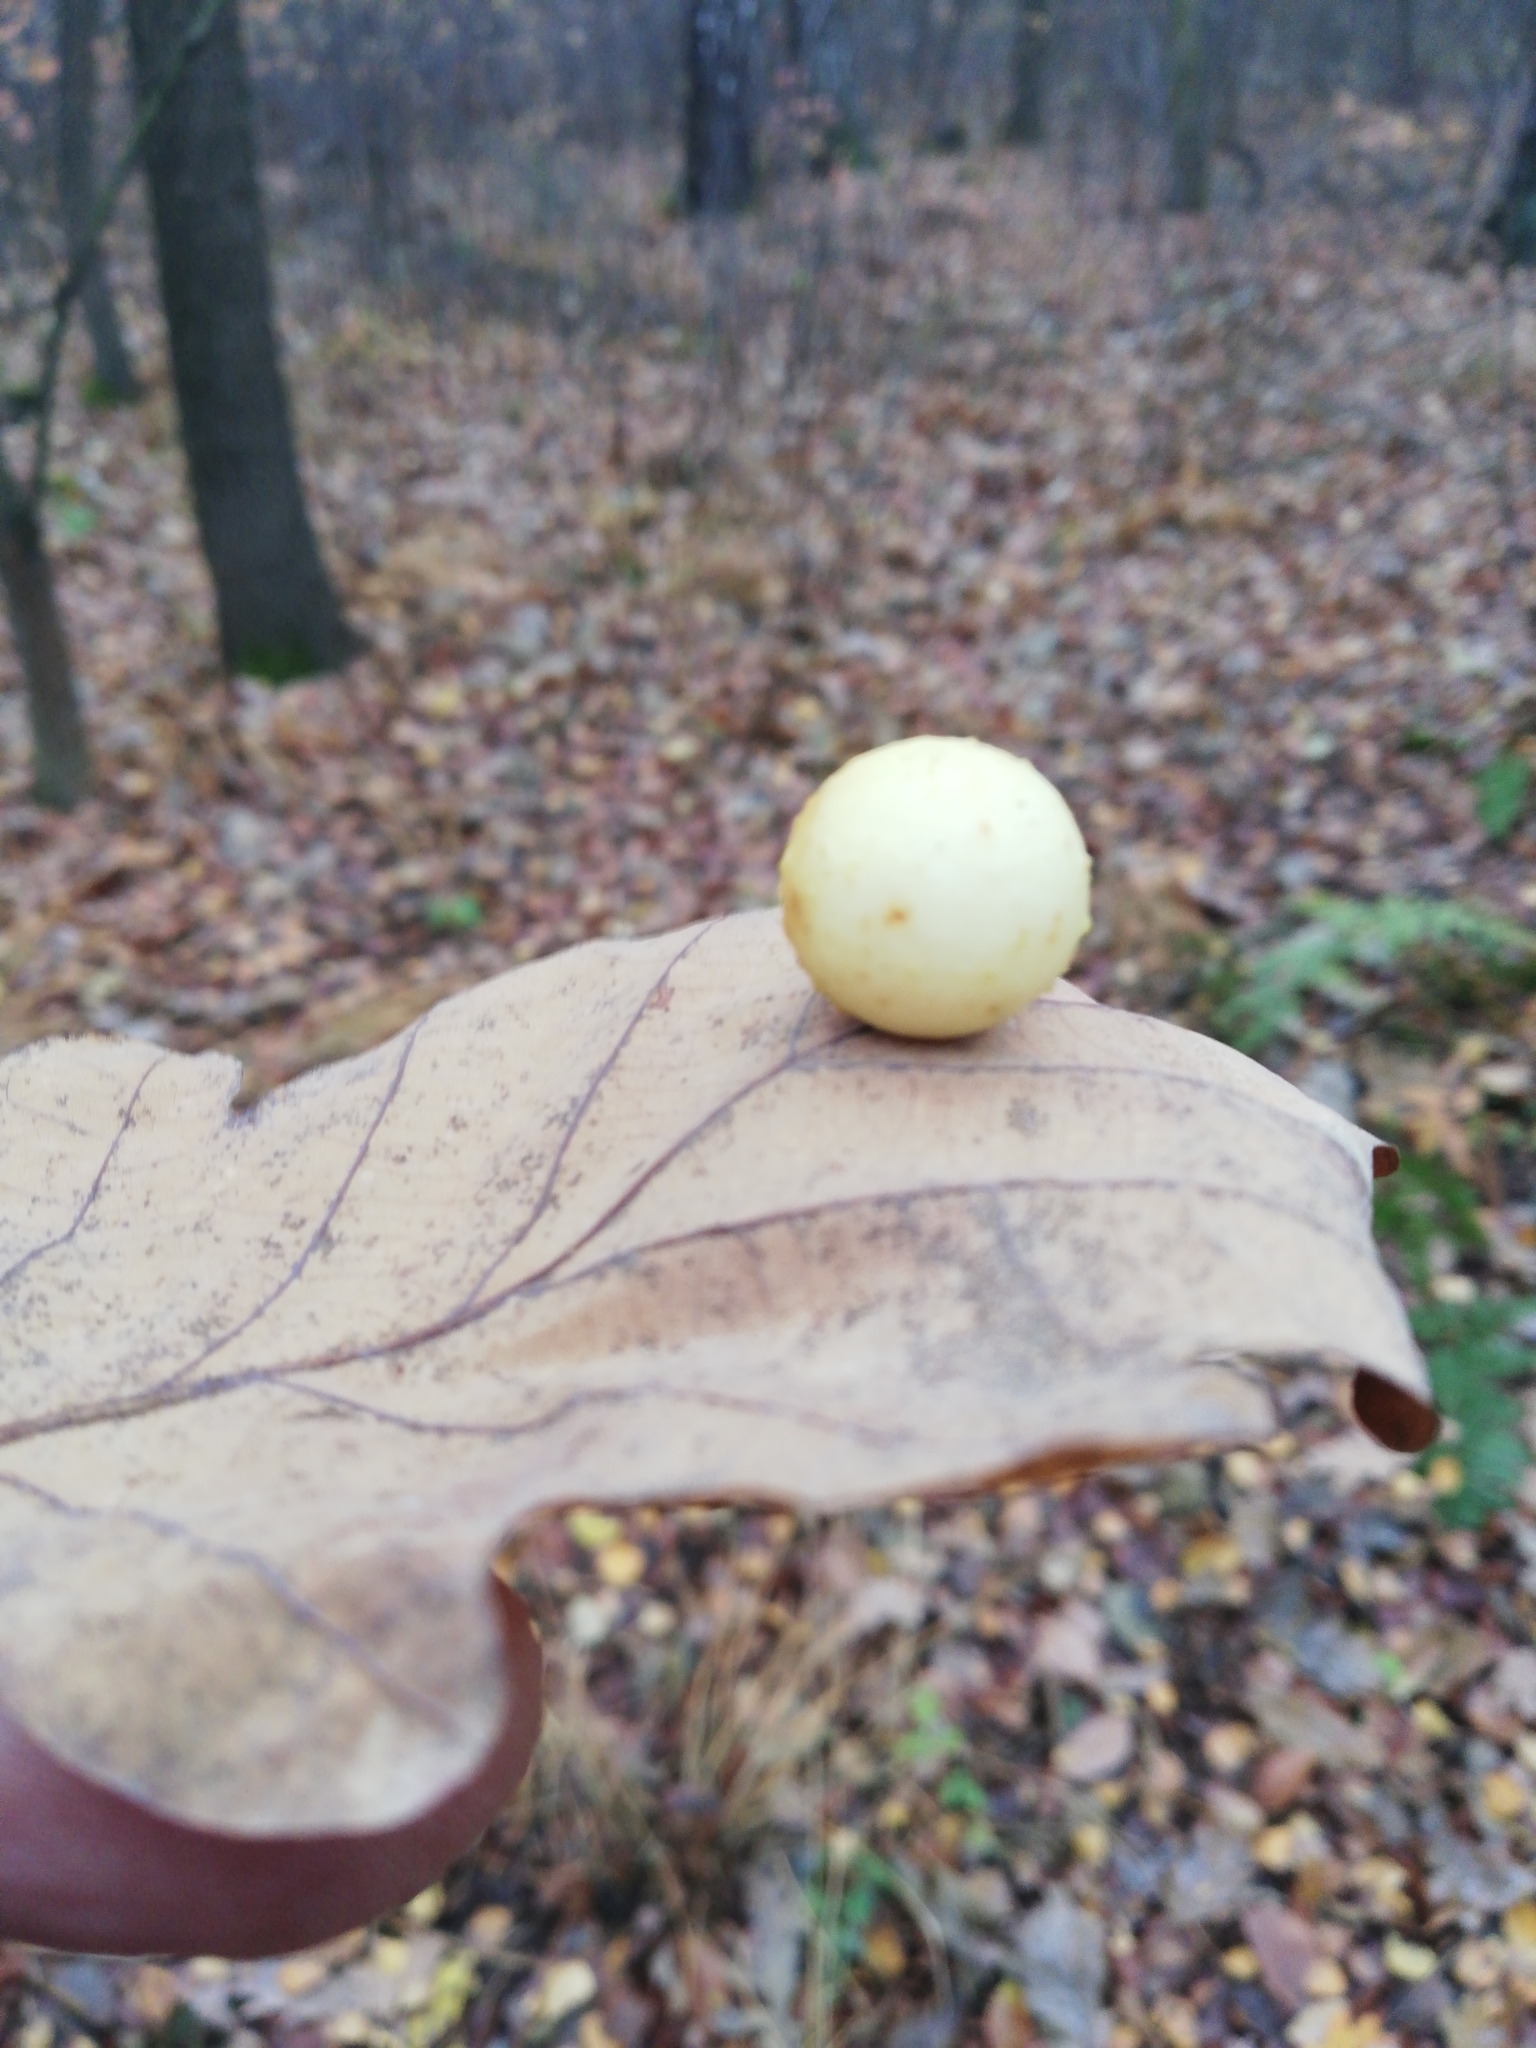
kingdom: Animalia
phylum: Arthropoda
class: Insecta
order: Hymenoptera
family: Cynipidae
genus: Cynips
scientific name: Cynips quercusfolii
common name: Cherry gall
